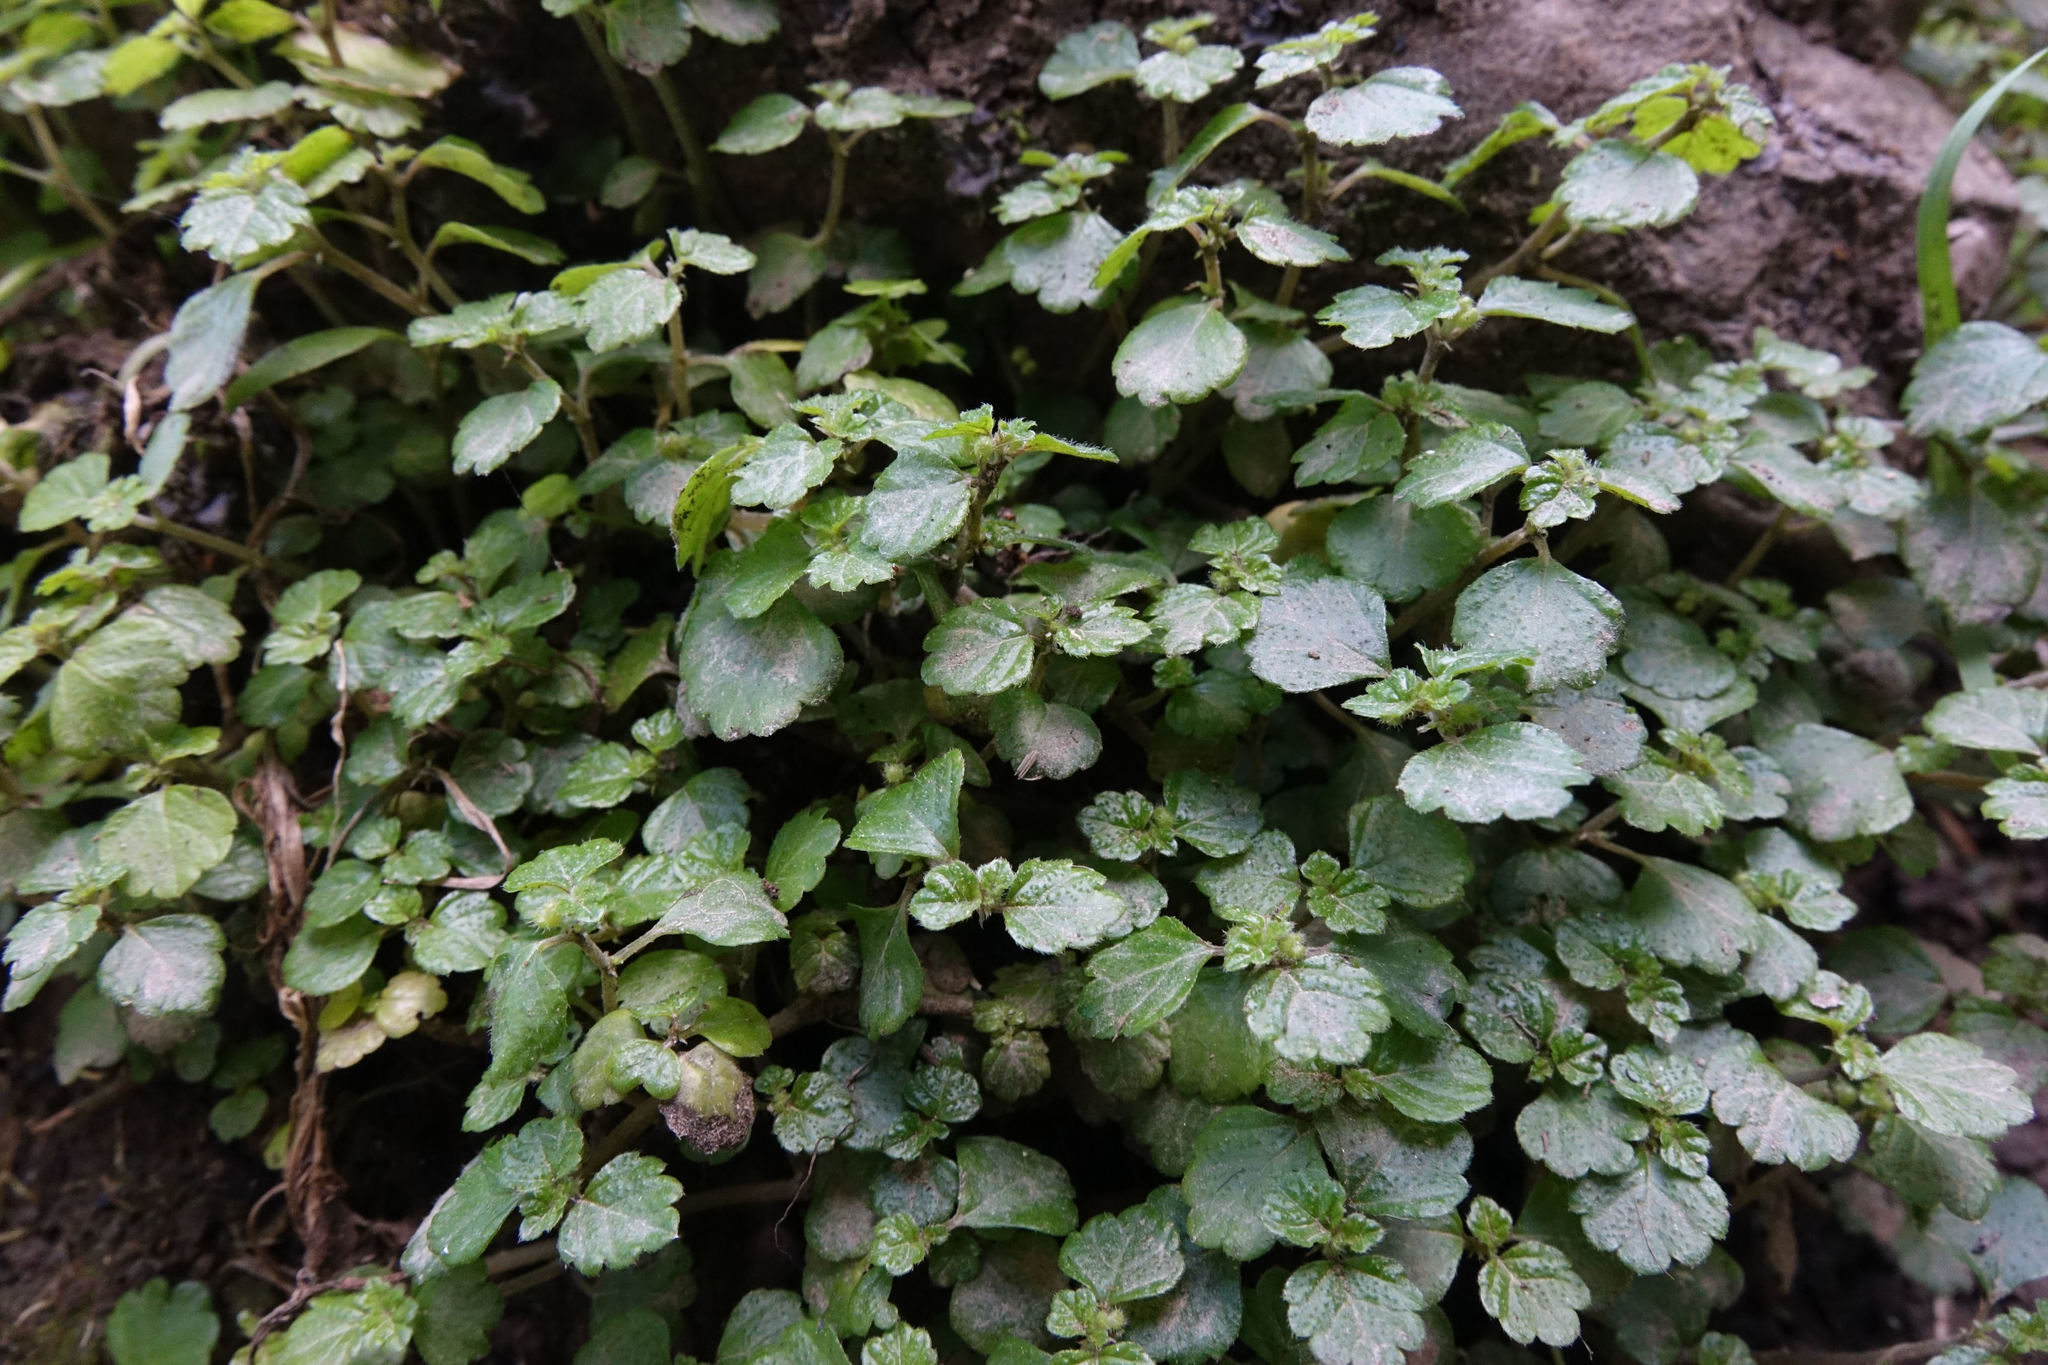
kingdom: Plantae
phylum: Tracheophyta
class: Magnoliopsida
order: Rosales
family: Urticaceae
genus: Australina
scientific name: Australina pusilla
